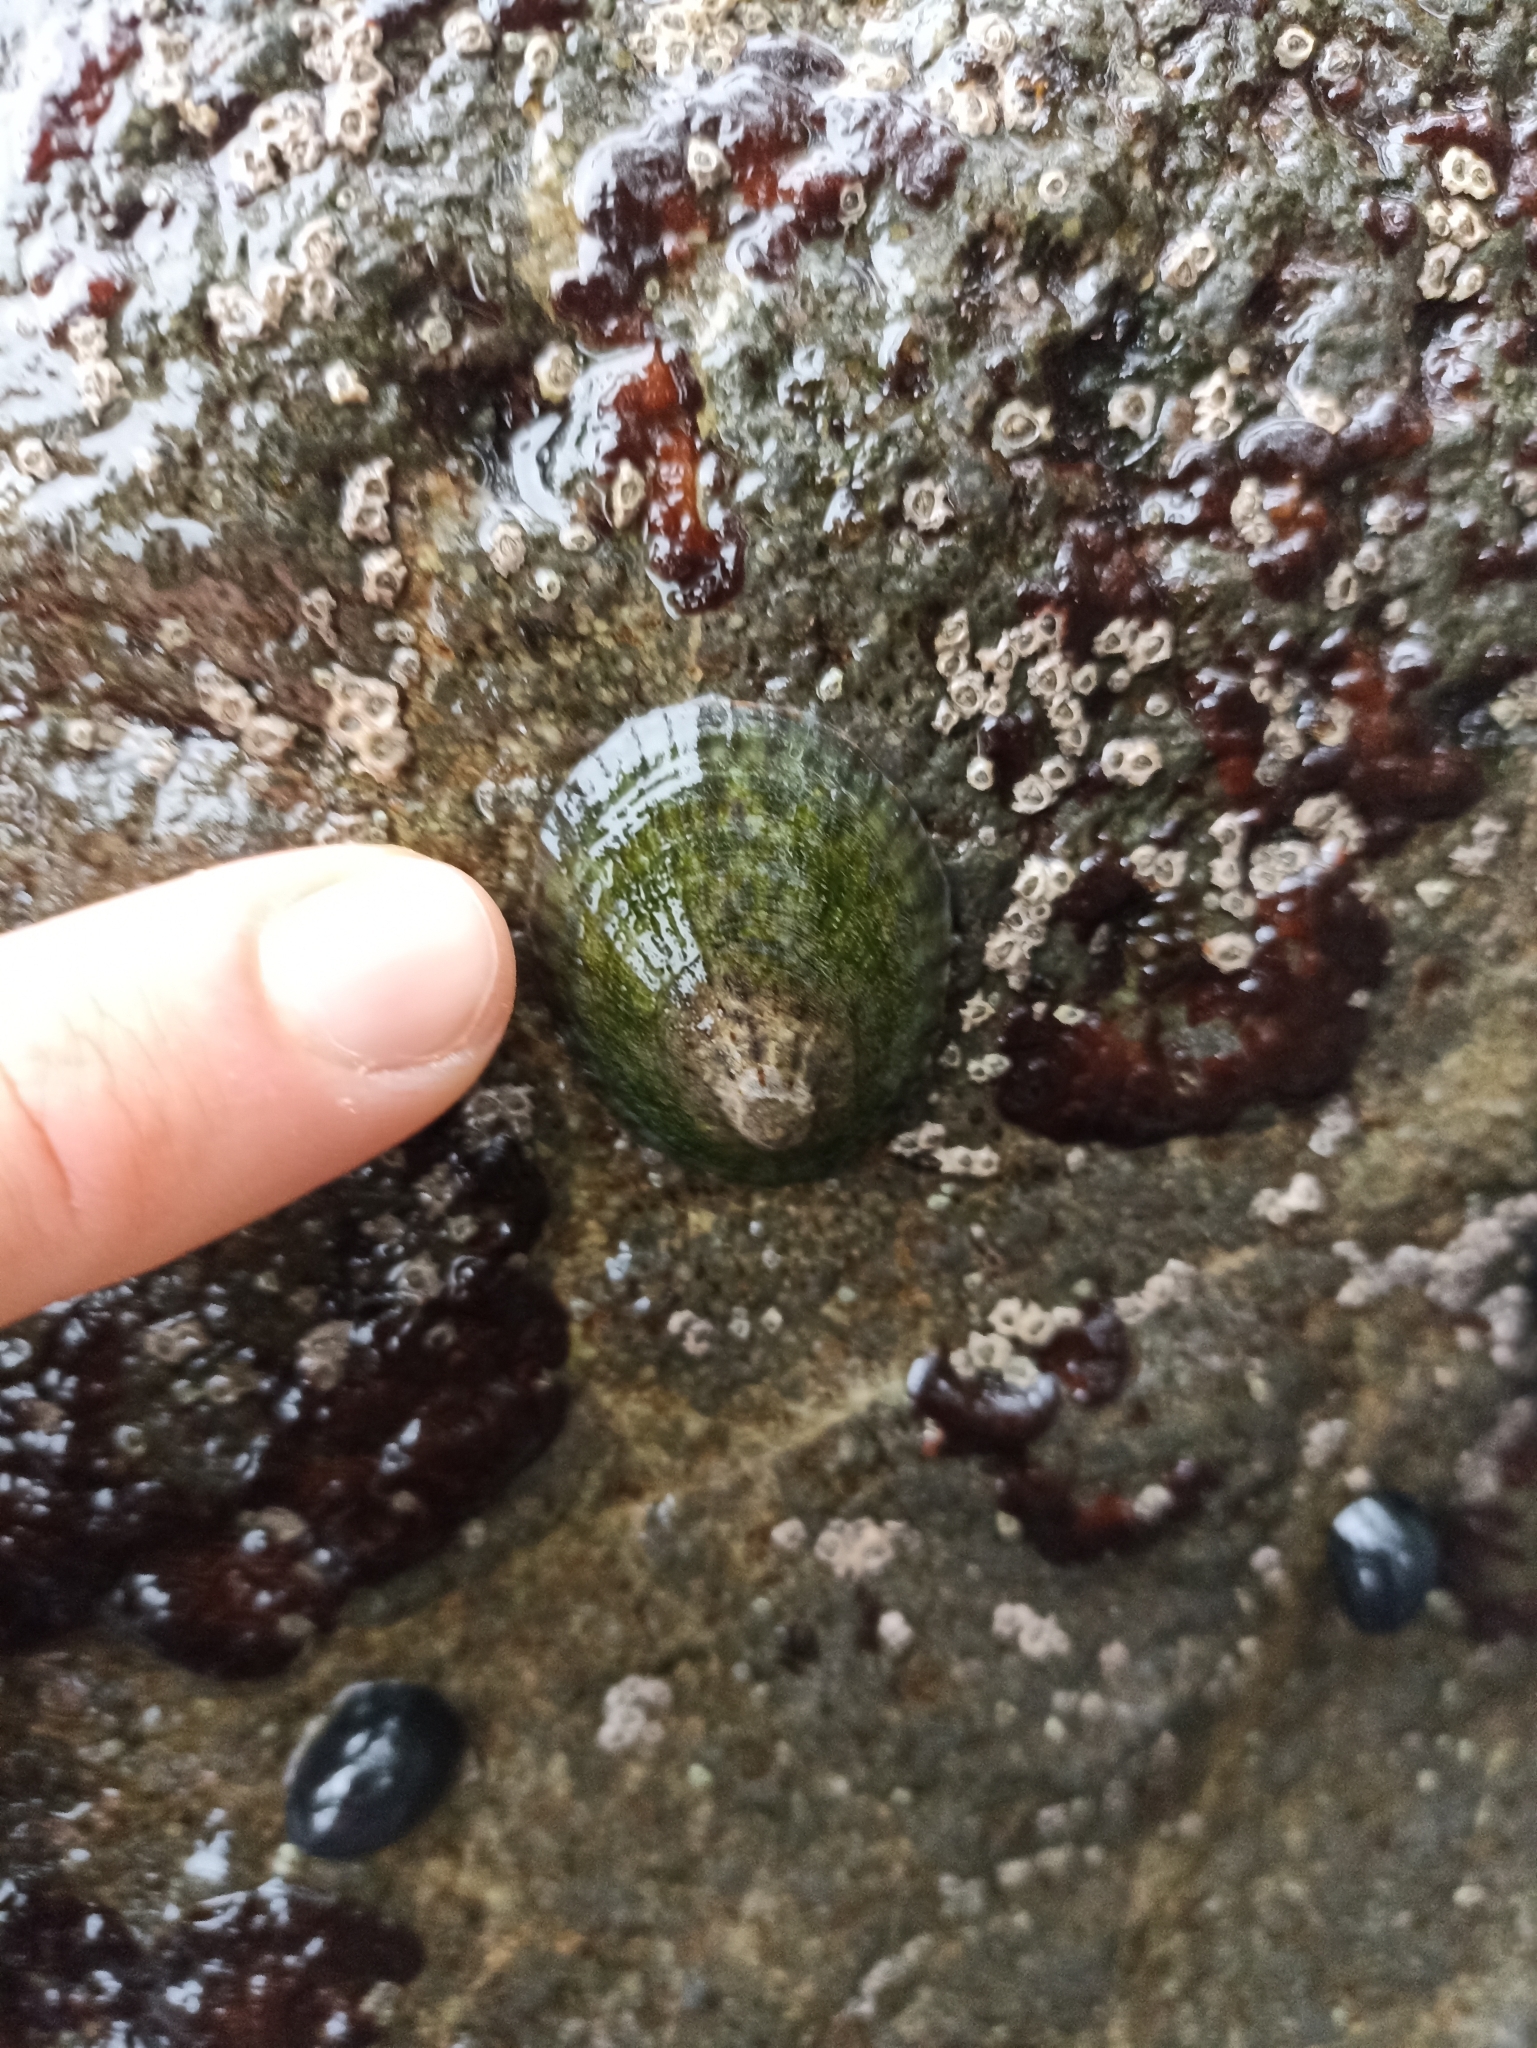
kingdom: Animalia
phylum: Mollusca
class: Gastropoda
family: Nacellidae
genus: Cellana
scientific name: Cellana radians
